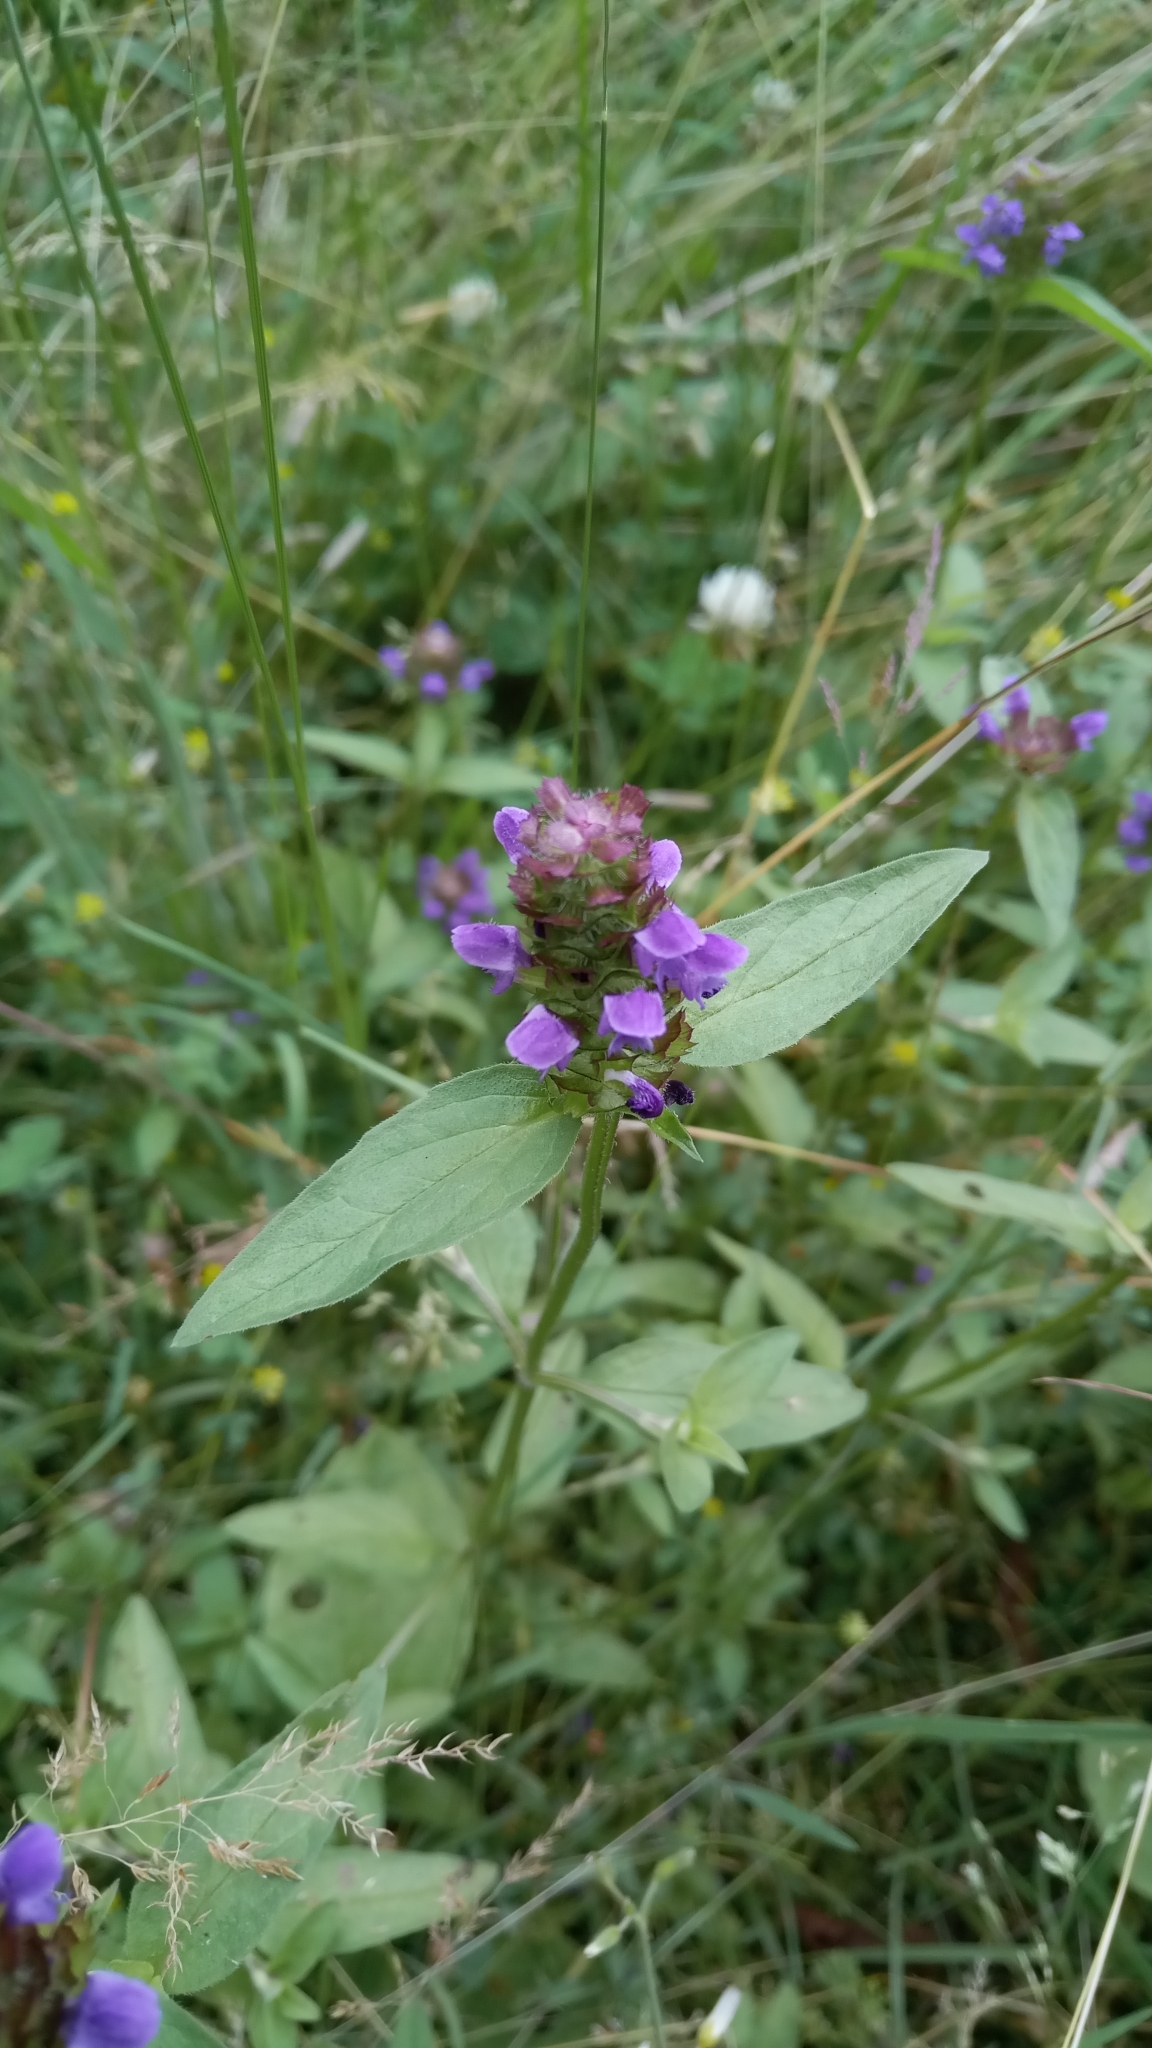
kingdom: Plantae
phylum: Tracheophyta
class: Magnoliopsida
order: Lamiales
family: Lamiaceae
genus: Prunella
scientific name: Prunella vulgaris
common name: Heal-all
